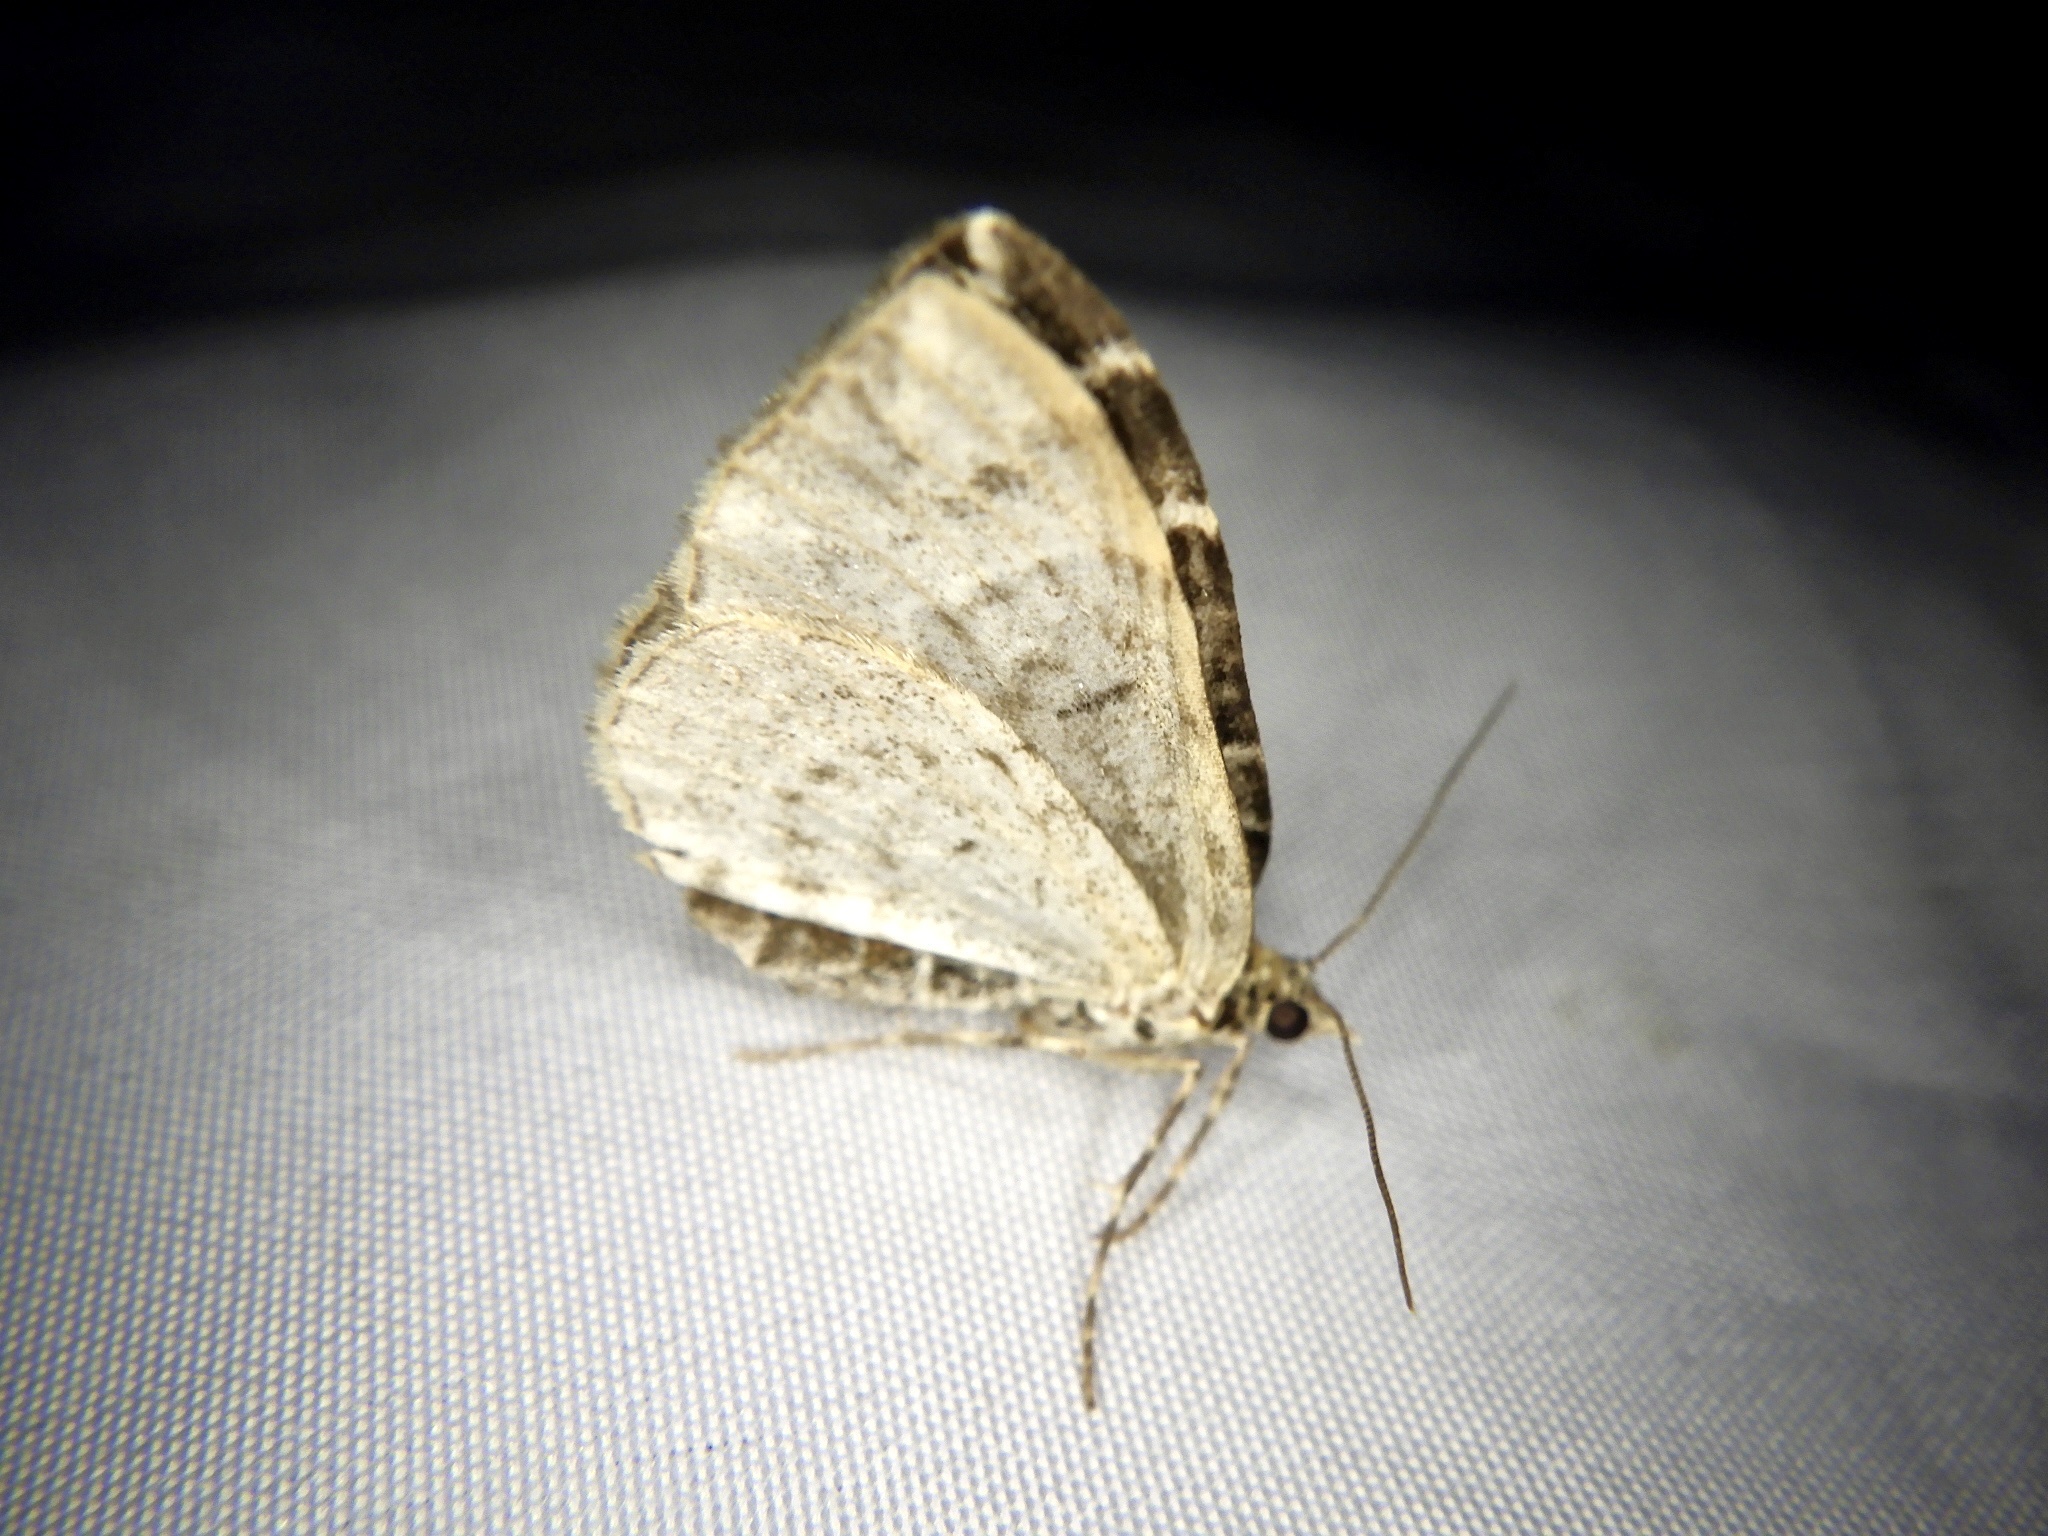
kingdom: Animalia
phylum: Arthropoda
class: Insecta
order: Lepidoptera
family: Geometridae
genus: Evecliptopera
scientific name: Evecliptopera illitata
